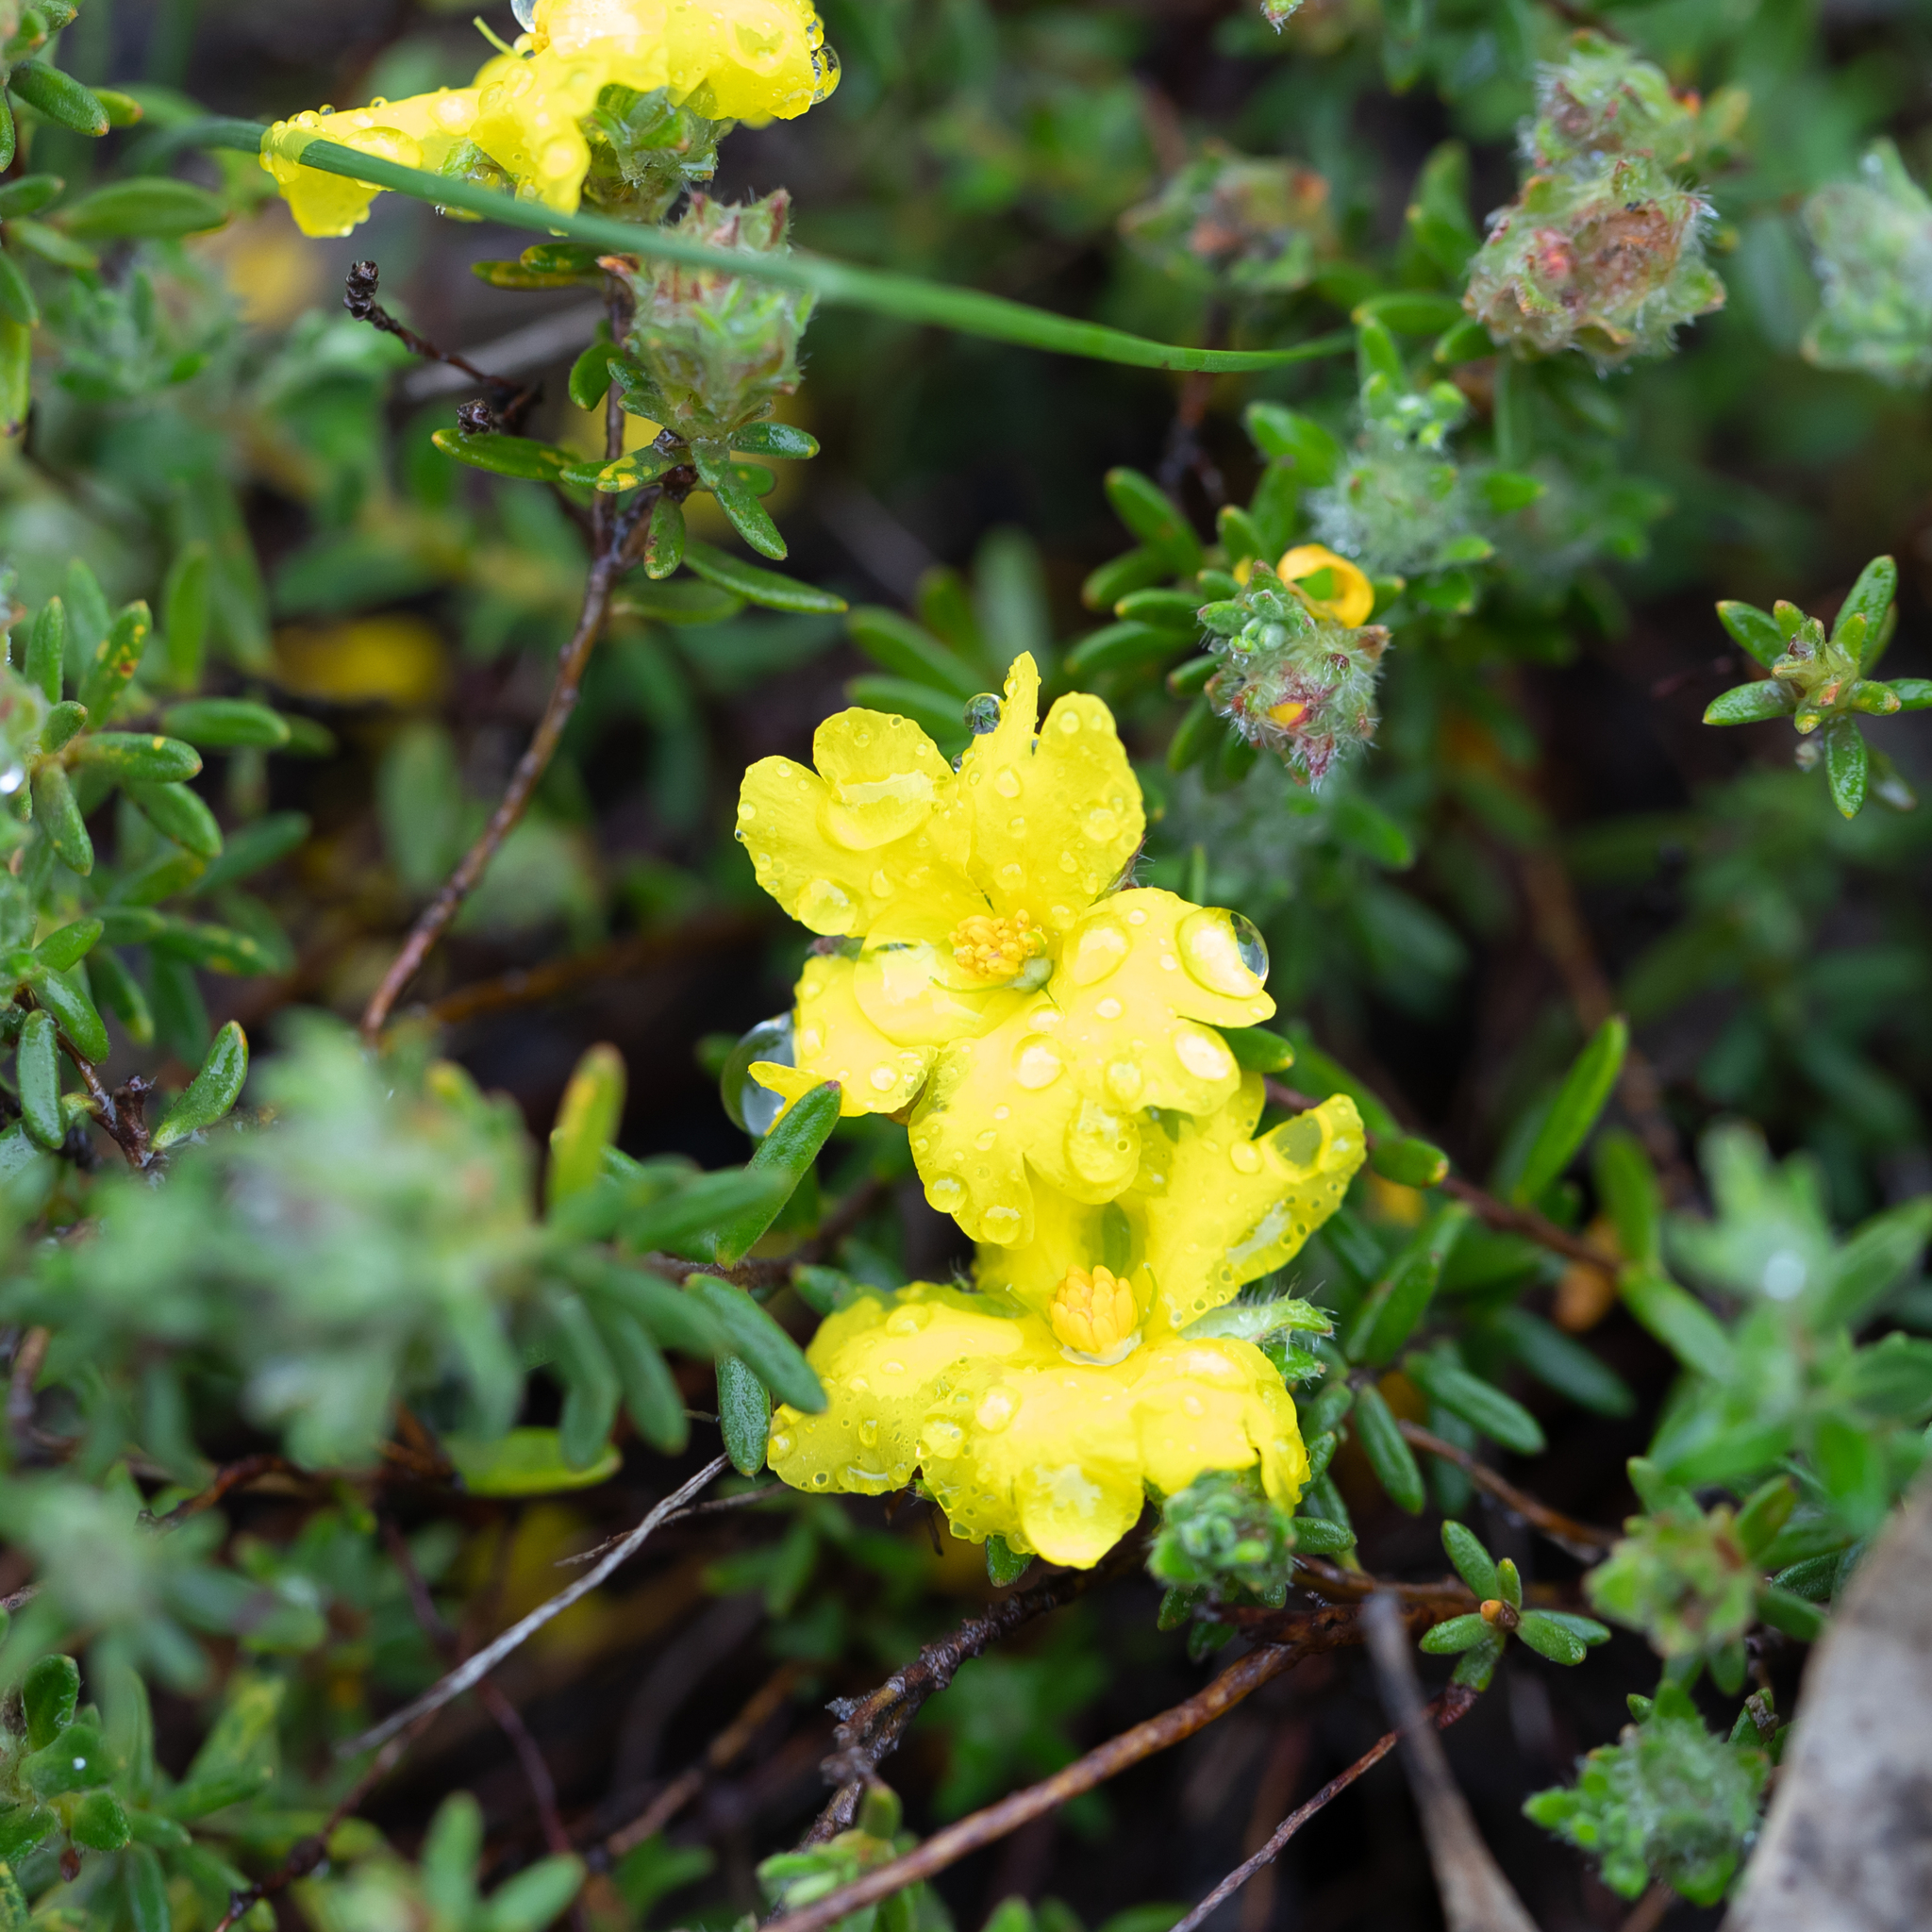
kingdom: Plantae
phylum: Tracheophyta
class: Magnoliopsida
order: Dilleniales
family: Dilleniaceae
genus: Hibbertia
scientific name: Hibbertia crinita
